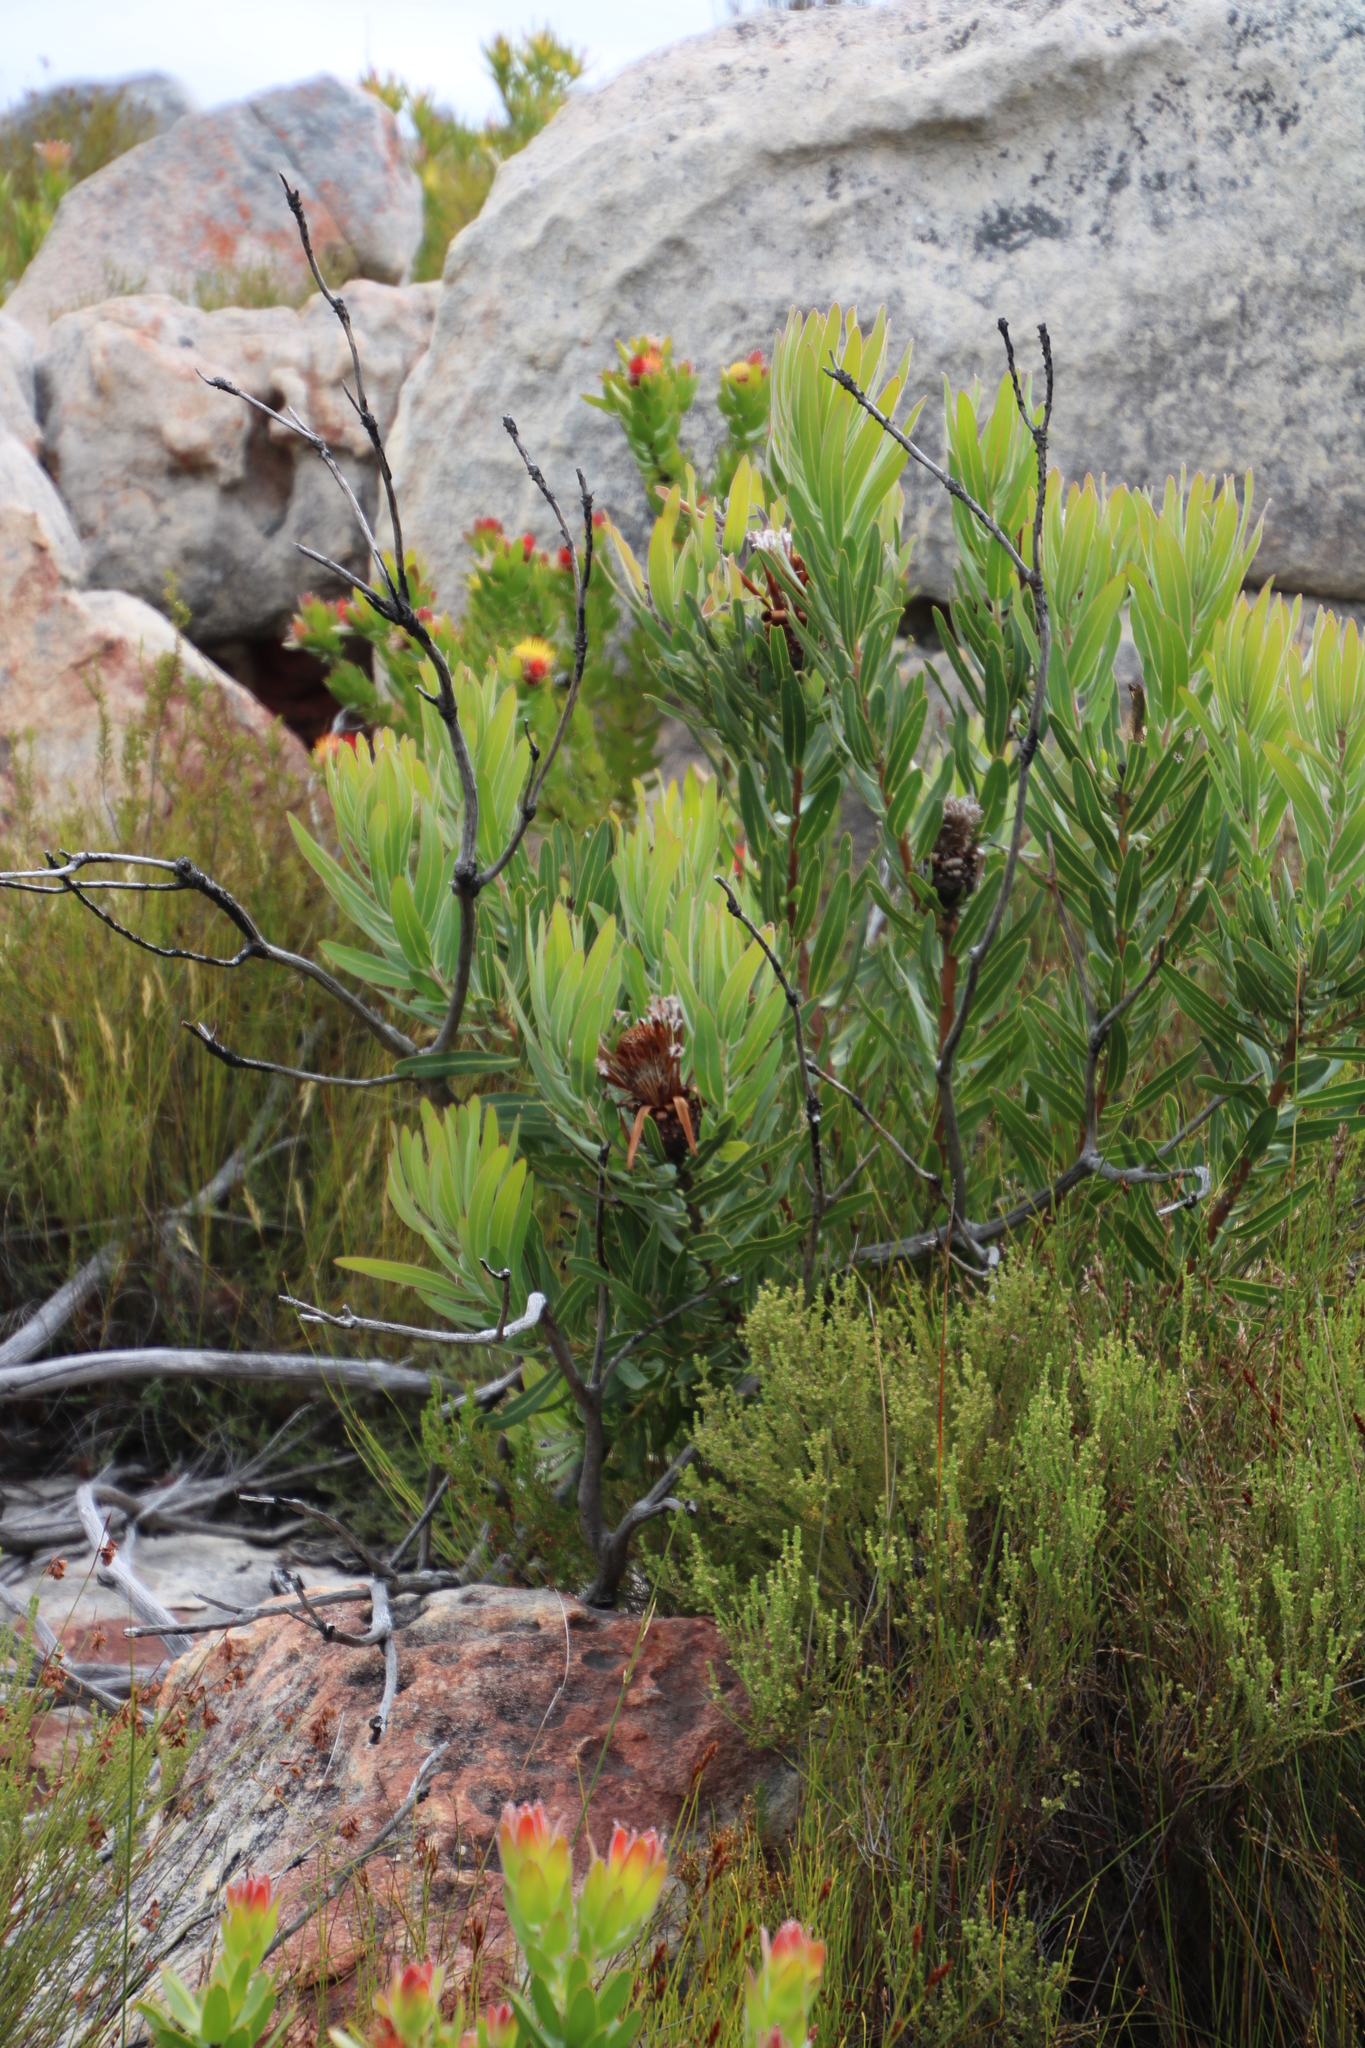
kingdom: Plantae
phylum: Tracheophyta
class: Magnoliopsida
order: Proteales
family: Proteaceae
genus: Protea
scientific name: Protea neriifolia
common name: Blue sugarbush
